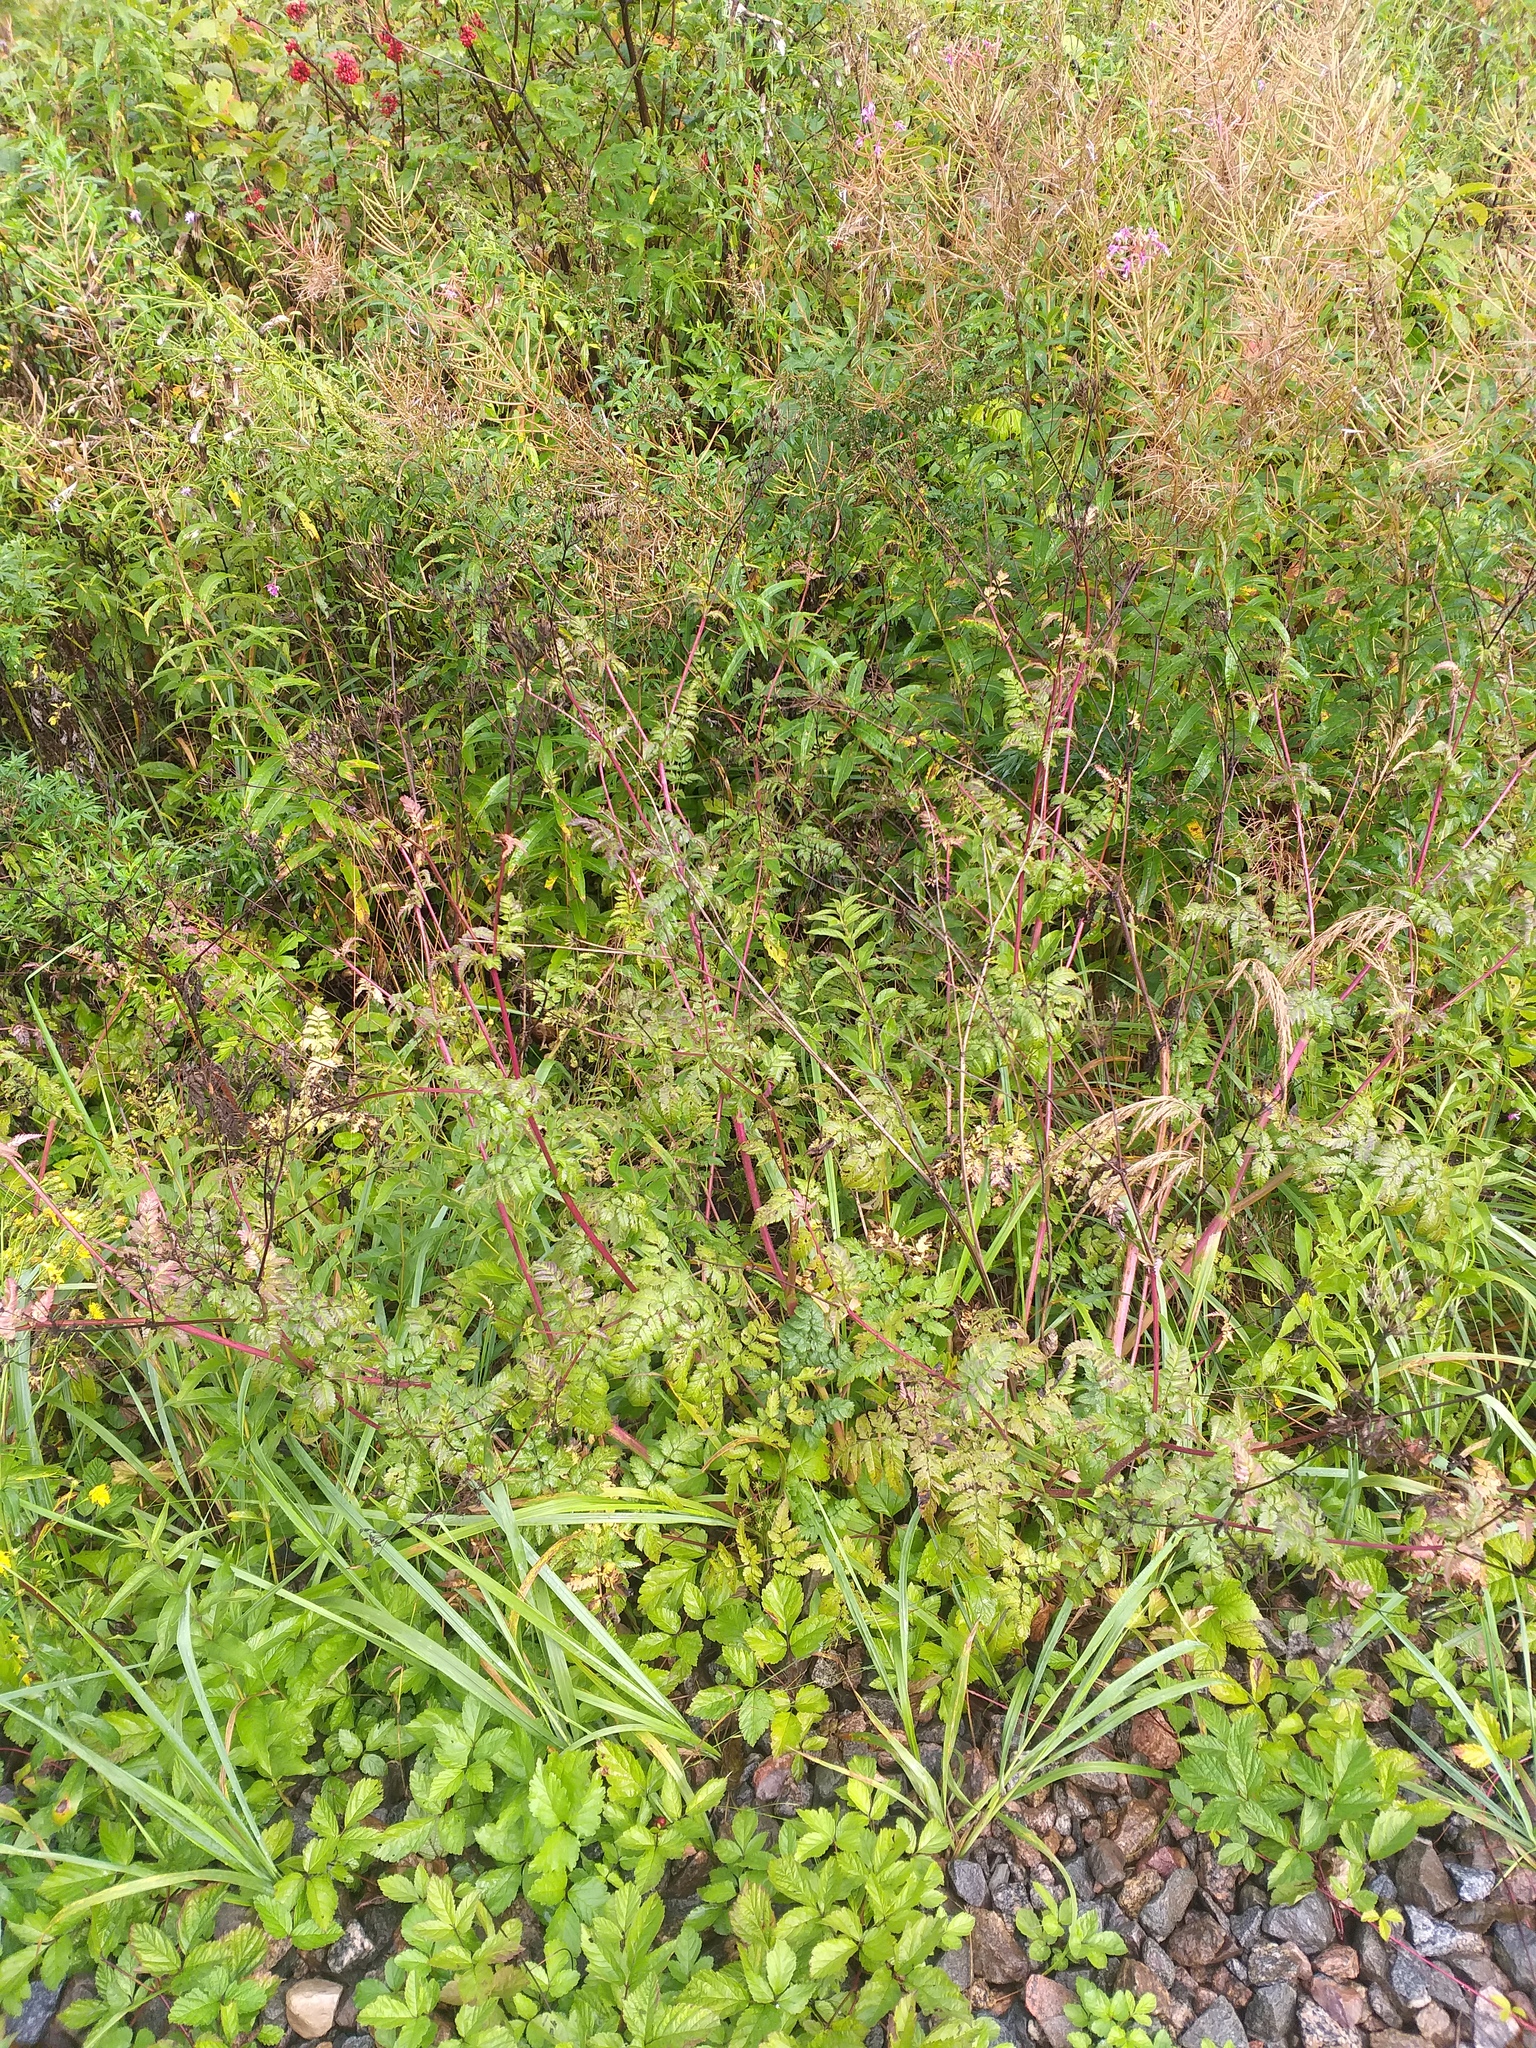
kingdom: Plantae
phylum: Tracheophyta
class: Magnoliopsida
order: Apiales
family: Apiaceae
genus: Chaerophyllum
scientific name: Chaerophyllum aureum
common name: Golden chervil
